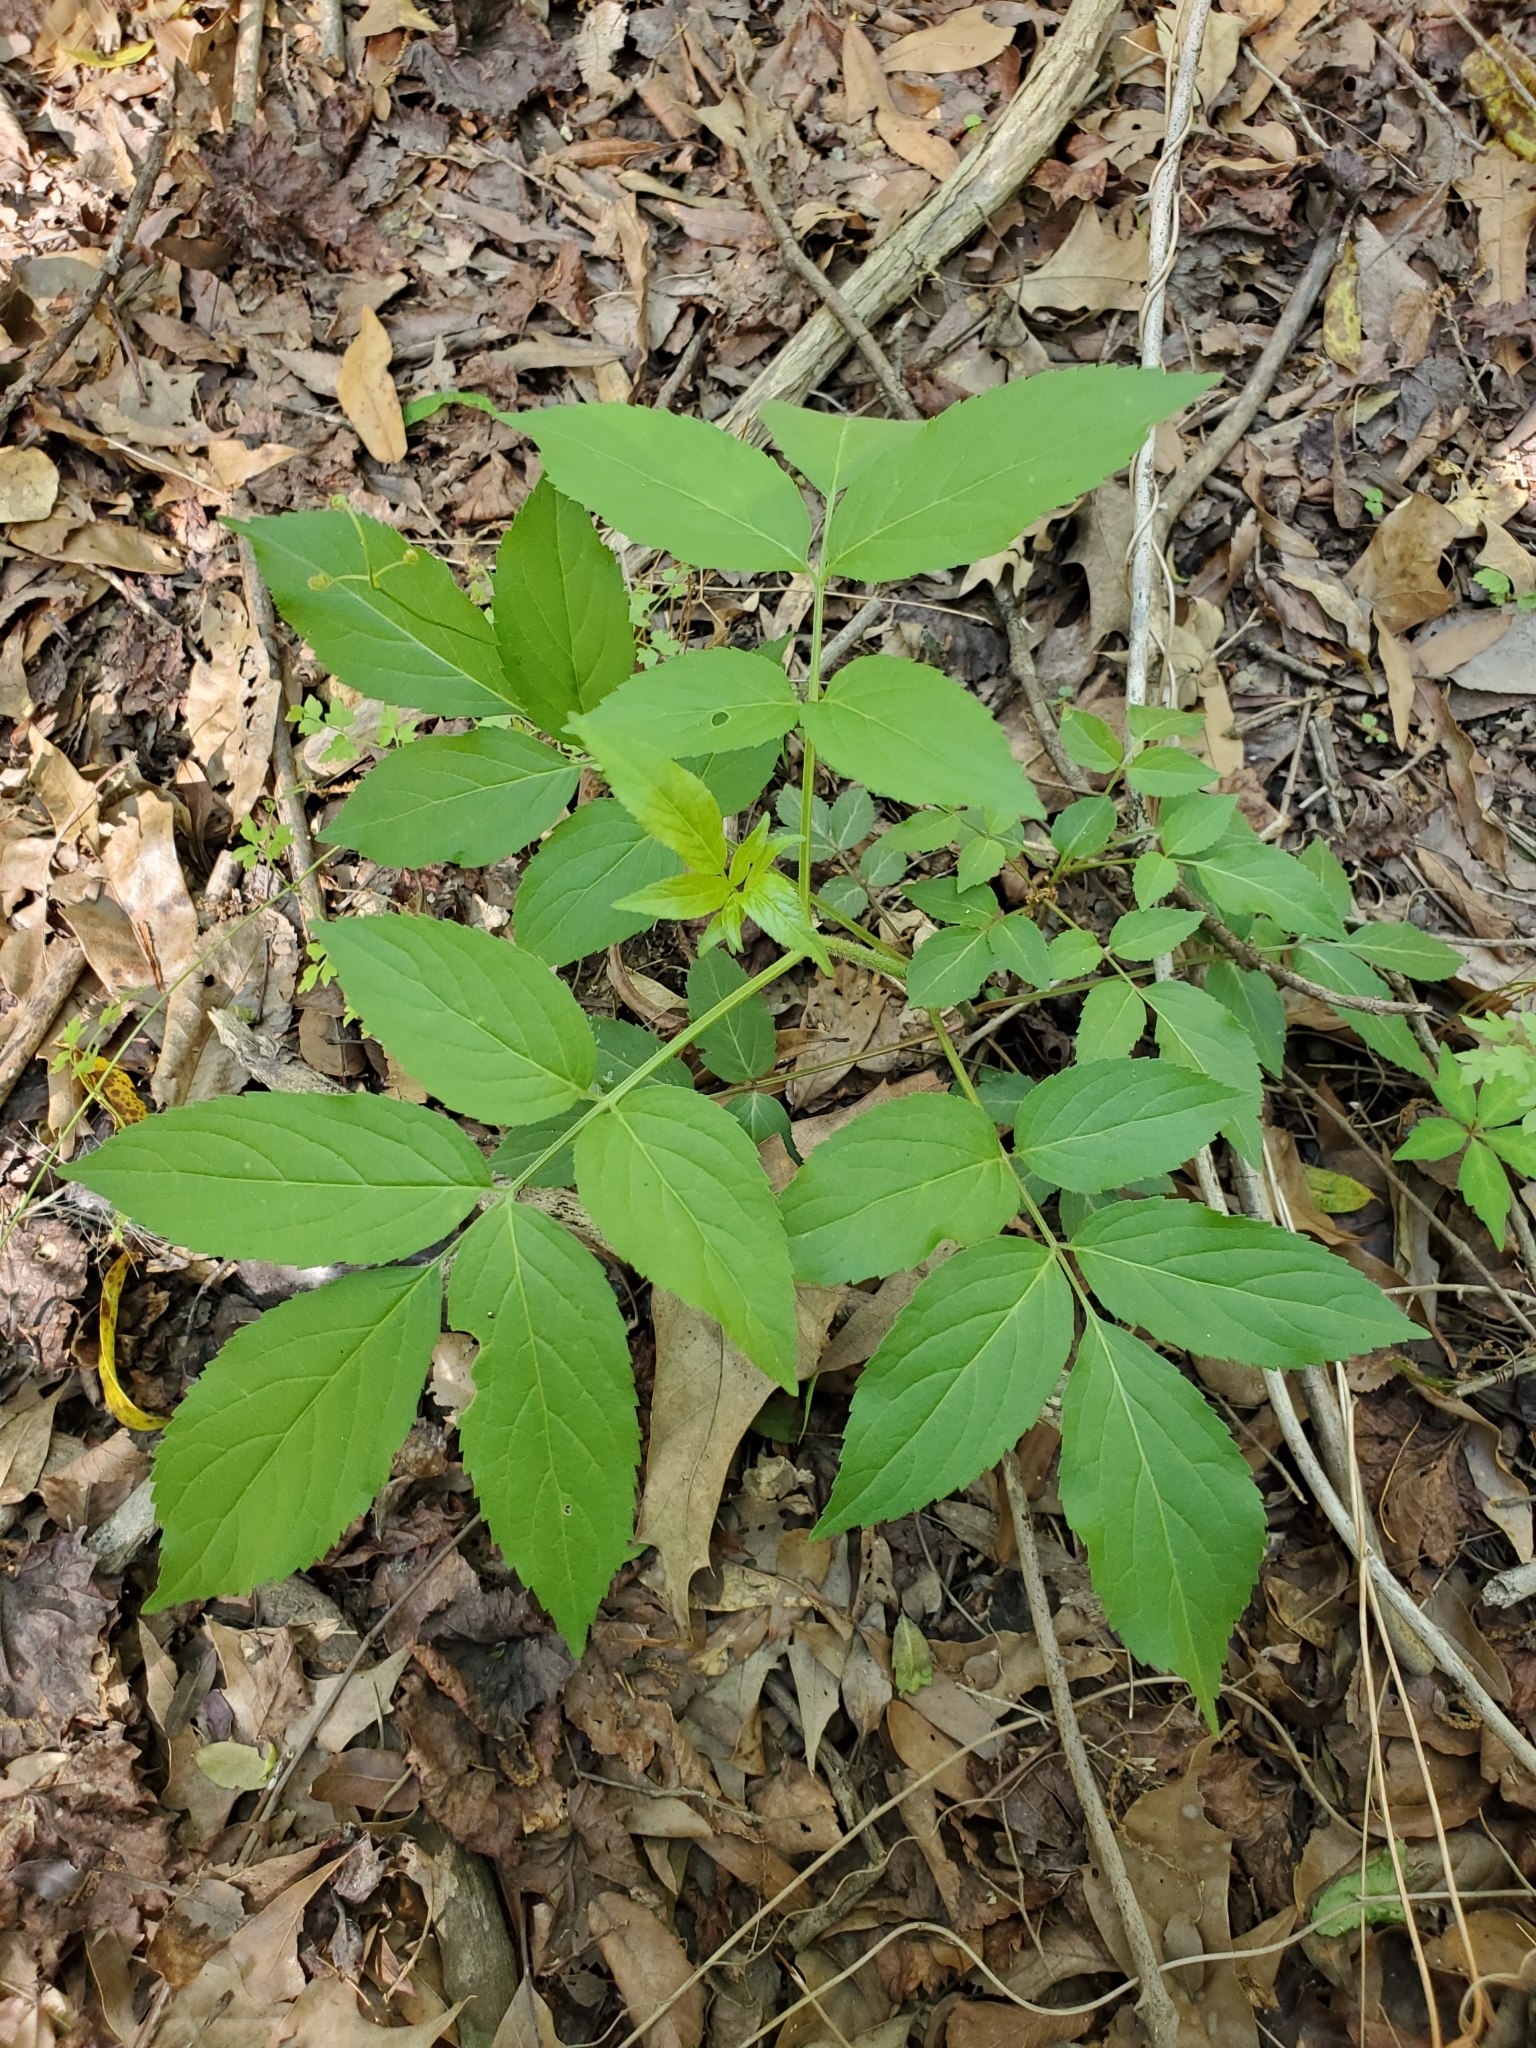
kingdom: Plantae
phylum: Tracheophyta
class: Magnoliopsida
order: Dipsacales
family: Viburnaceae
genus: Sambucus
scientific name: Sambucus canadensis
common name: American elder
